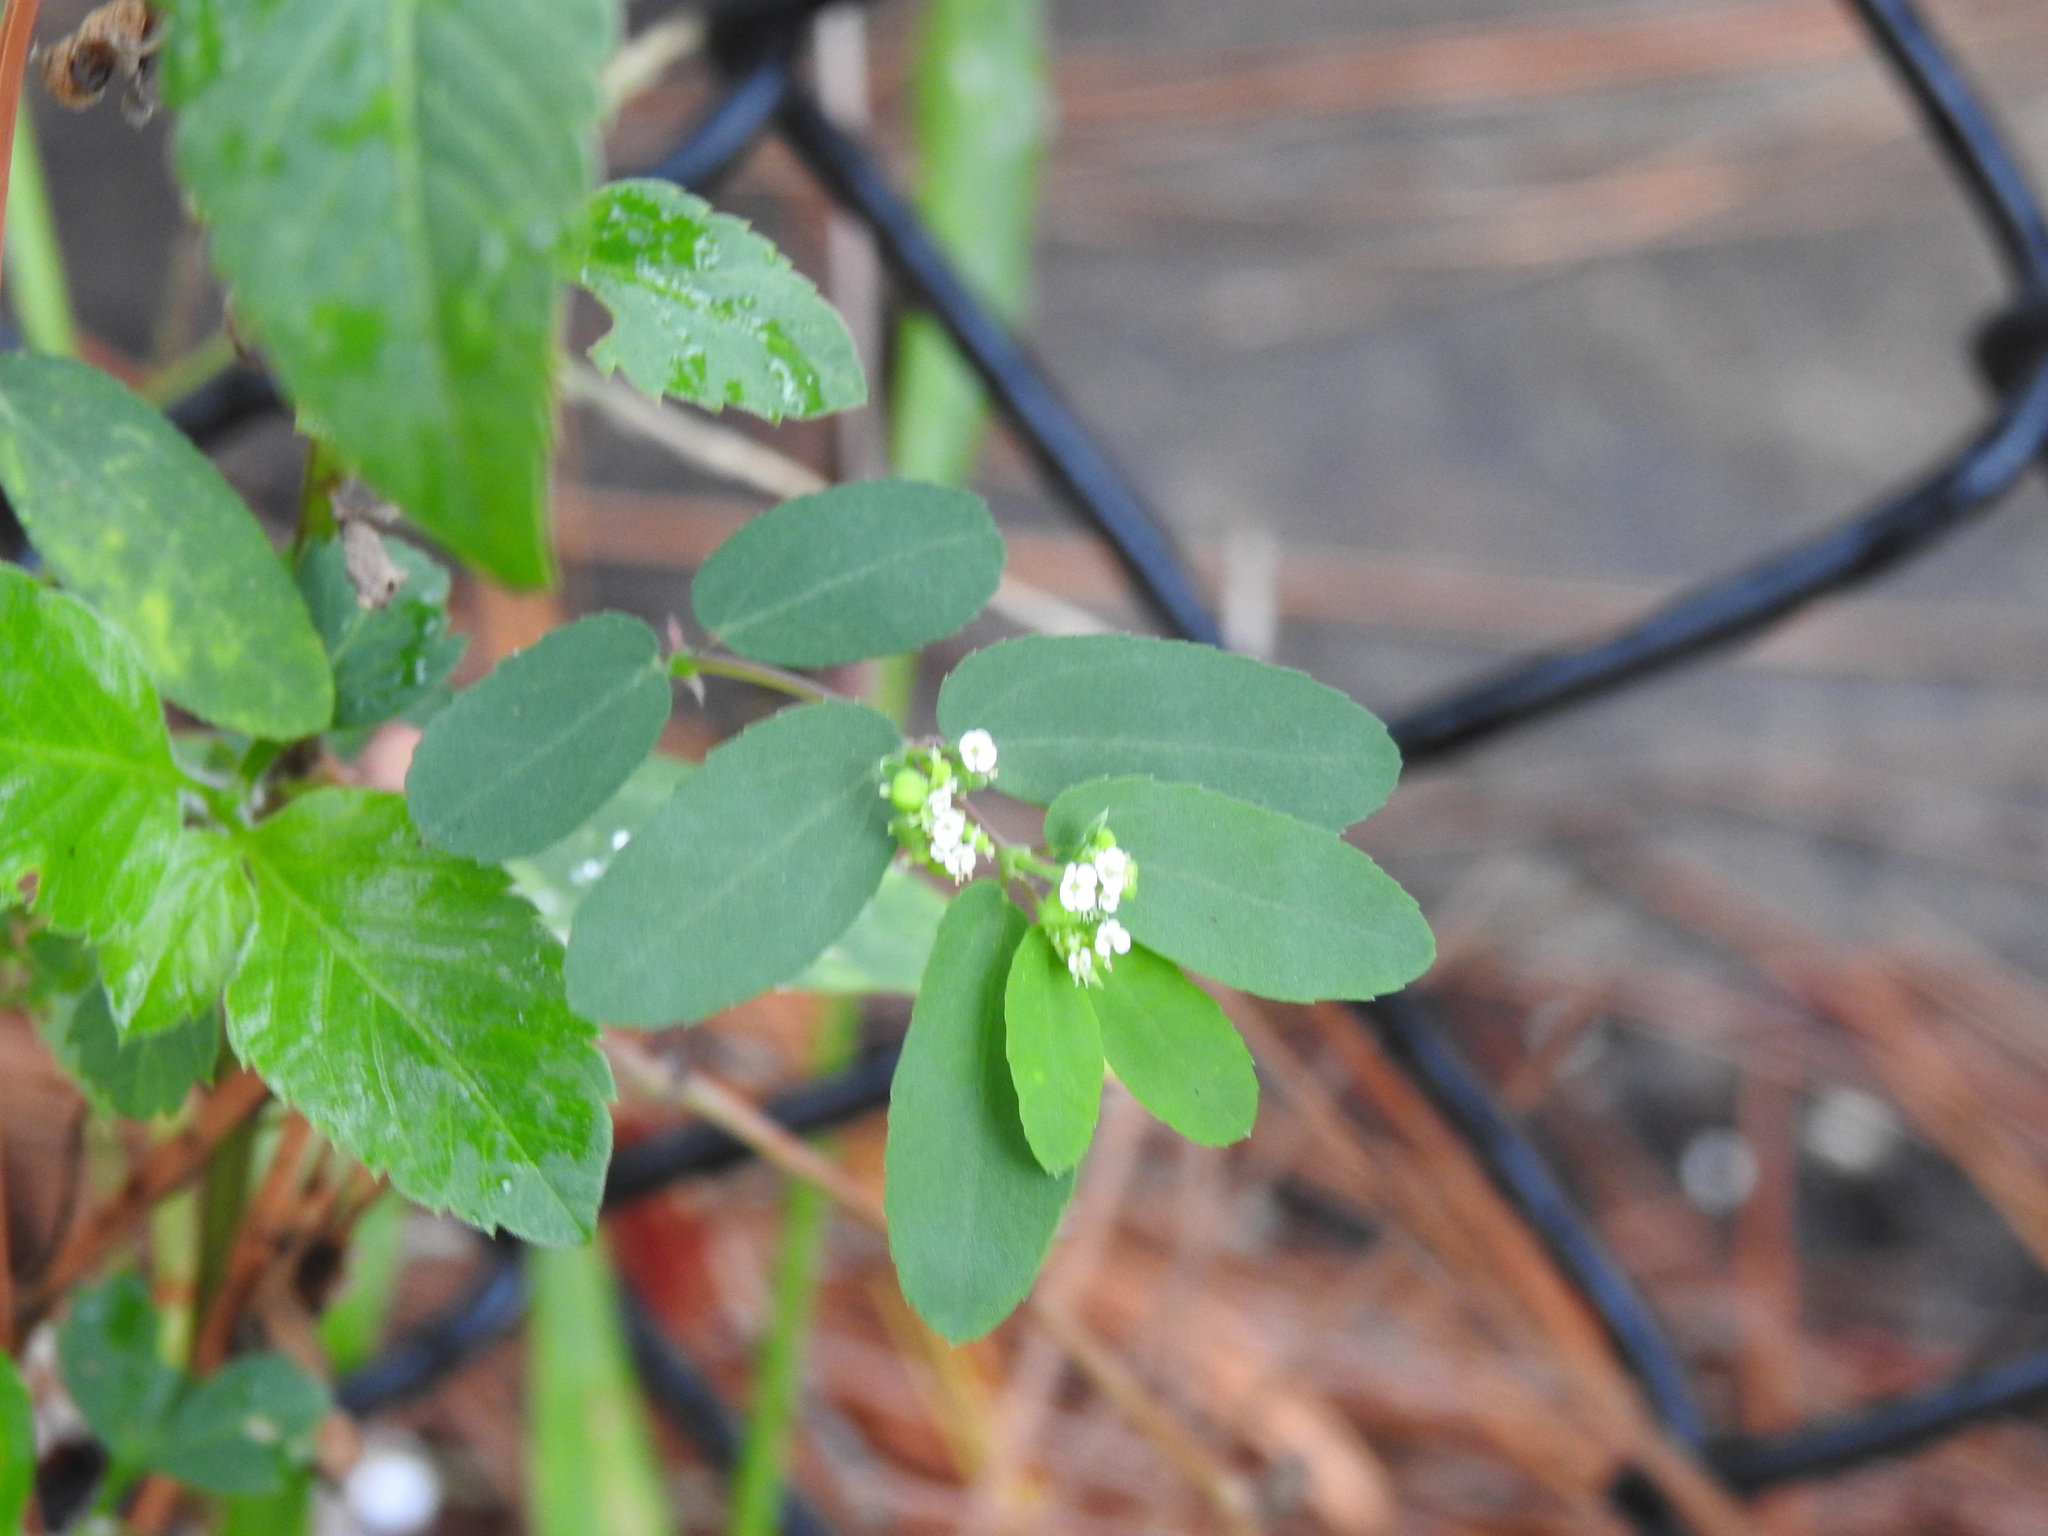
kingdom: Plantae
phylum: Tracheophyta
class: Magnoliopsida
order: Malpighiales
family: Euphorbiaceae
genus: Euphorbia
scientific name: Euphorbia hypericifolia
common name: Graceful sandmat
